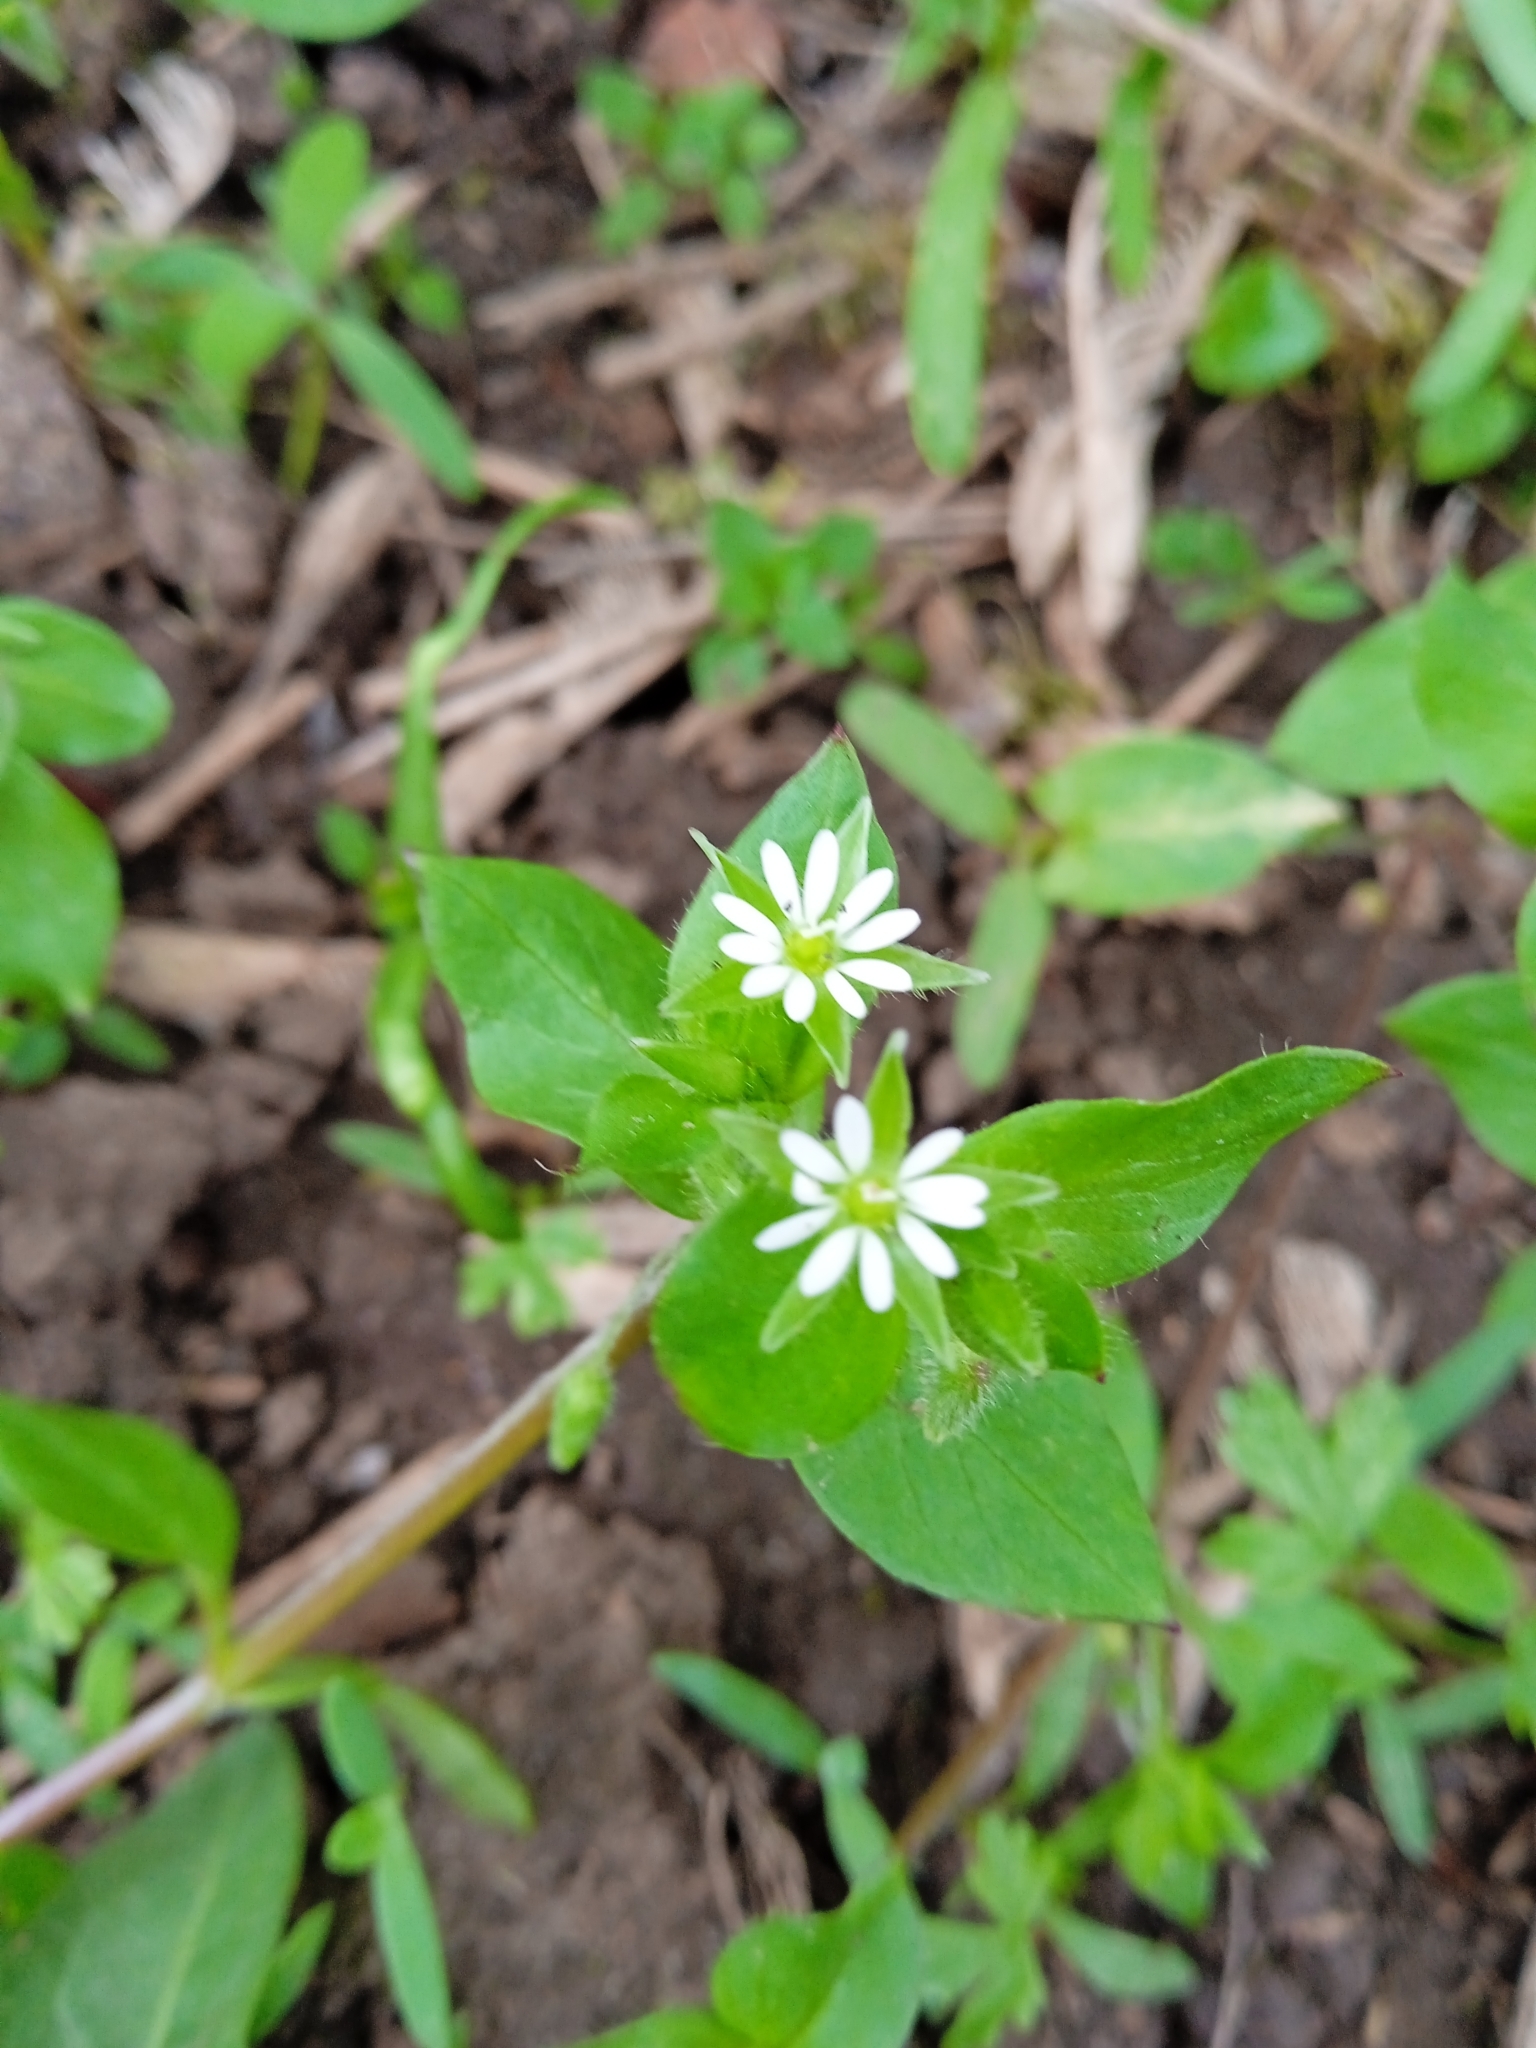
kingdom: Plantae
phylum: Tracheophyta
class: Magnoliopsida
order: Caryophyllales
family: Caryophyllaceae
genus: Stellaria
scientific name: Stellaria media
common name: Common chickweed
